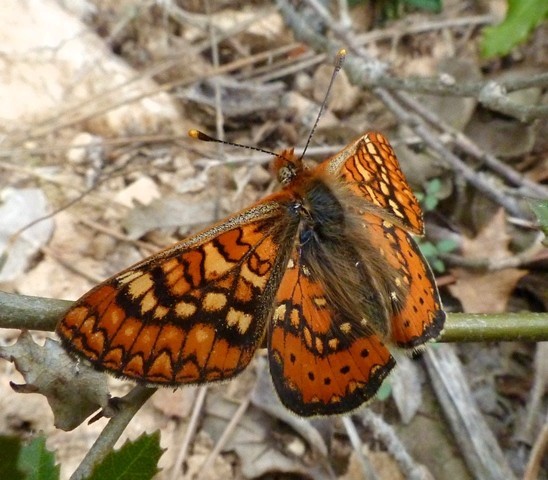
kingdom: Animalia
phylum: Arthropoda
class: Insecta
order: Lepidoptera
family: Nymphalidae
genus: Euphydryas
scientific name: Euphydryas aurinia
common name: Marsh fritillary
